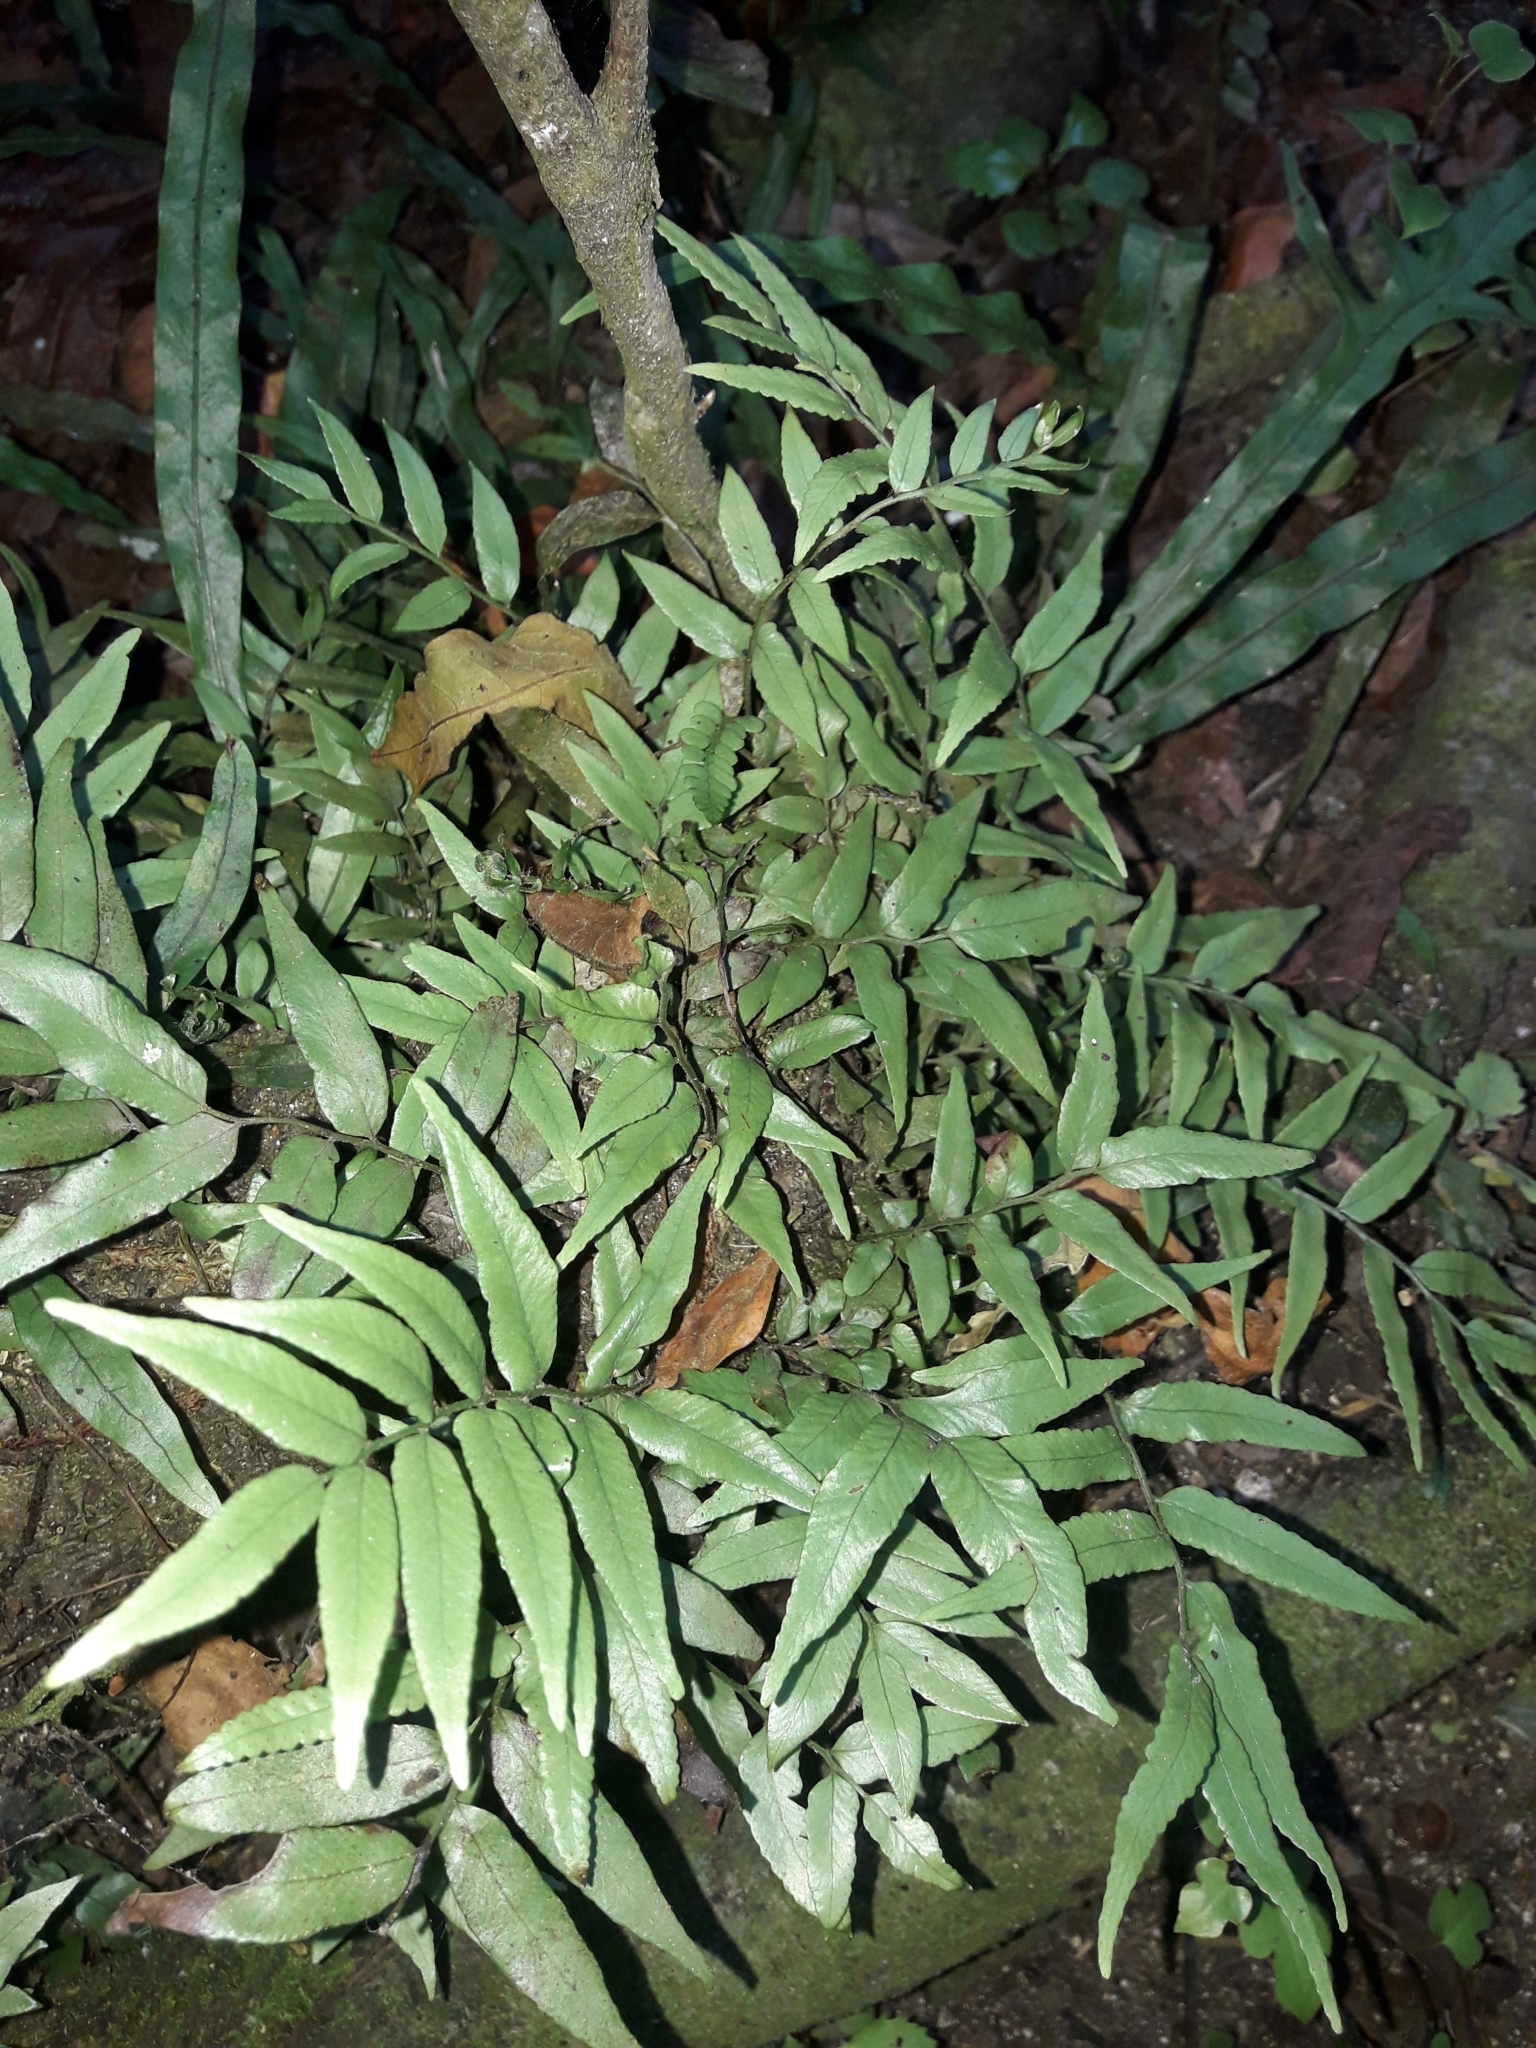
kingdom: Plantae
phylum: Tracheophyta
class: Polypodiopsida
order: Polypodiales
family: Tectariaceae
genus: Arthropteris
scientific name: Arthropteris tenella
